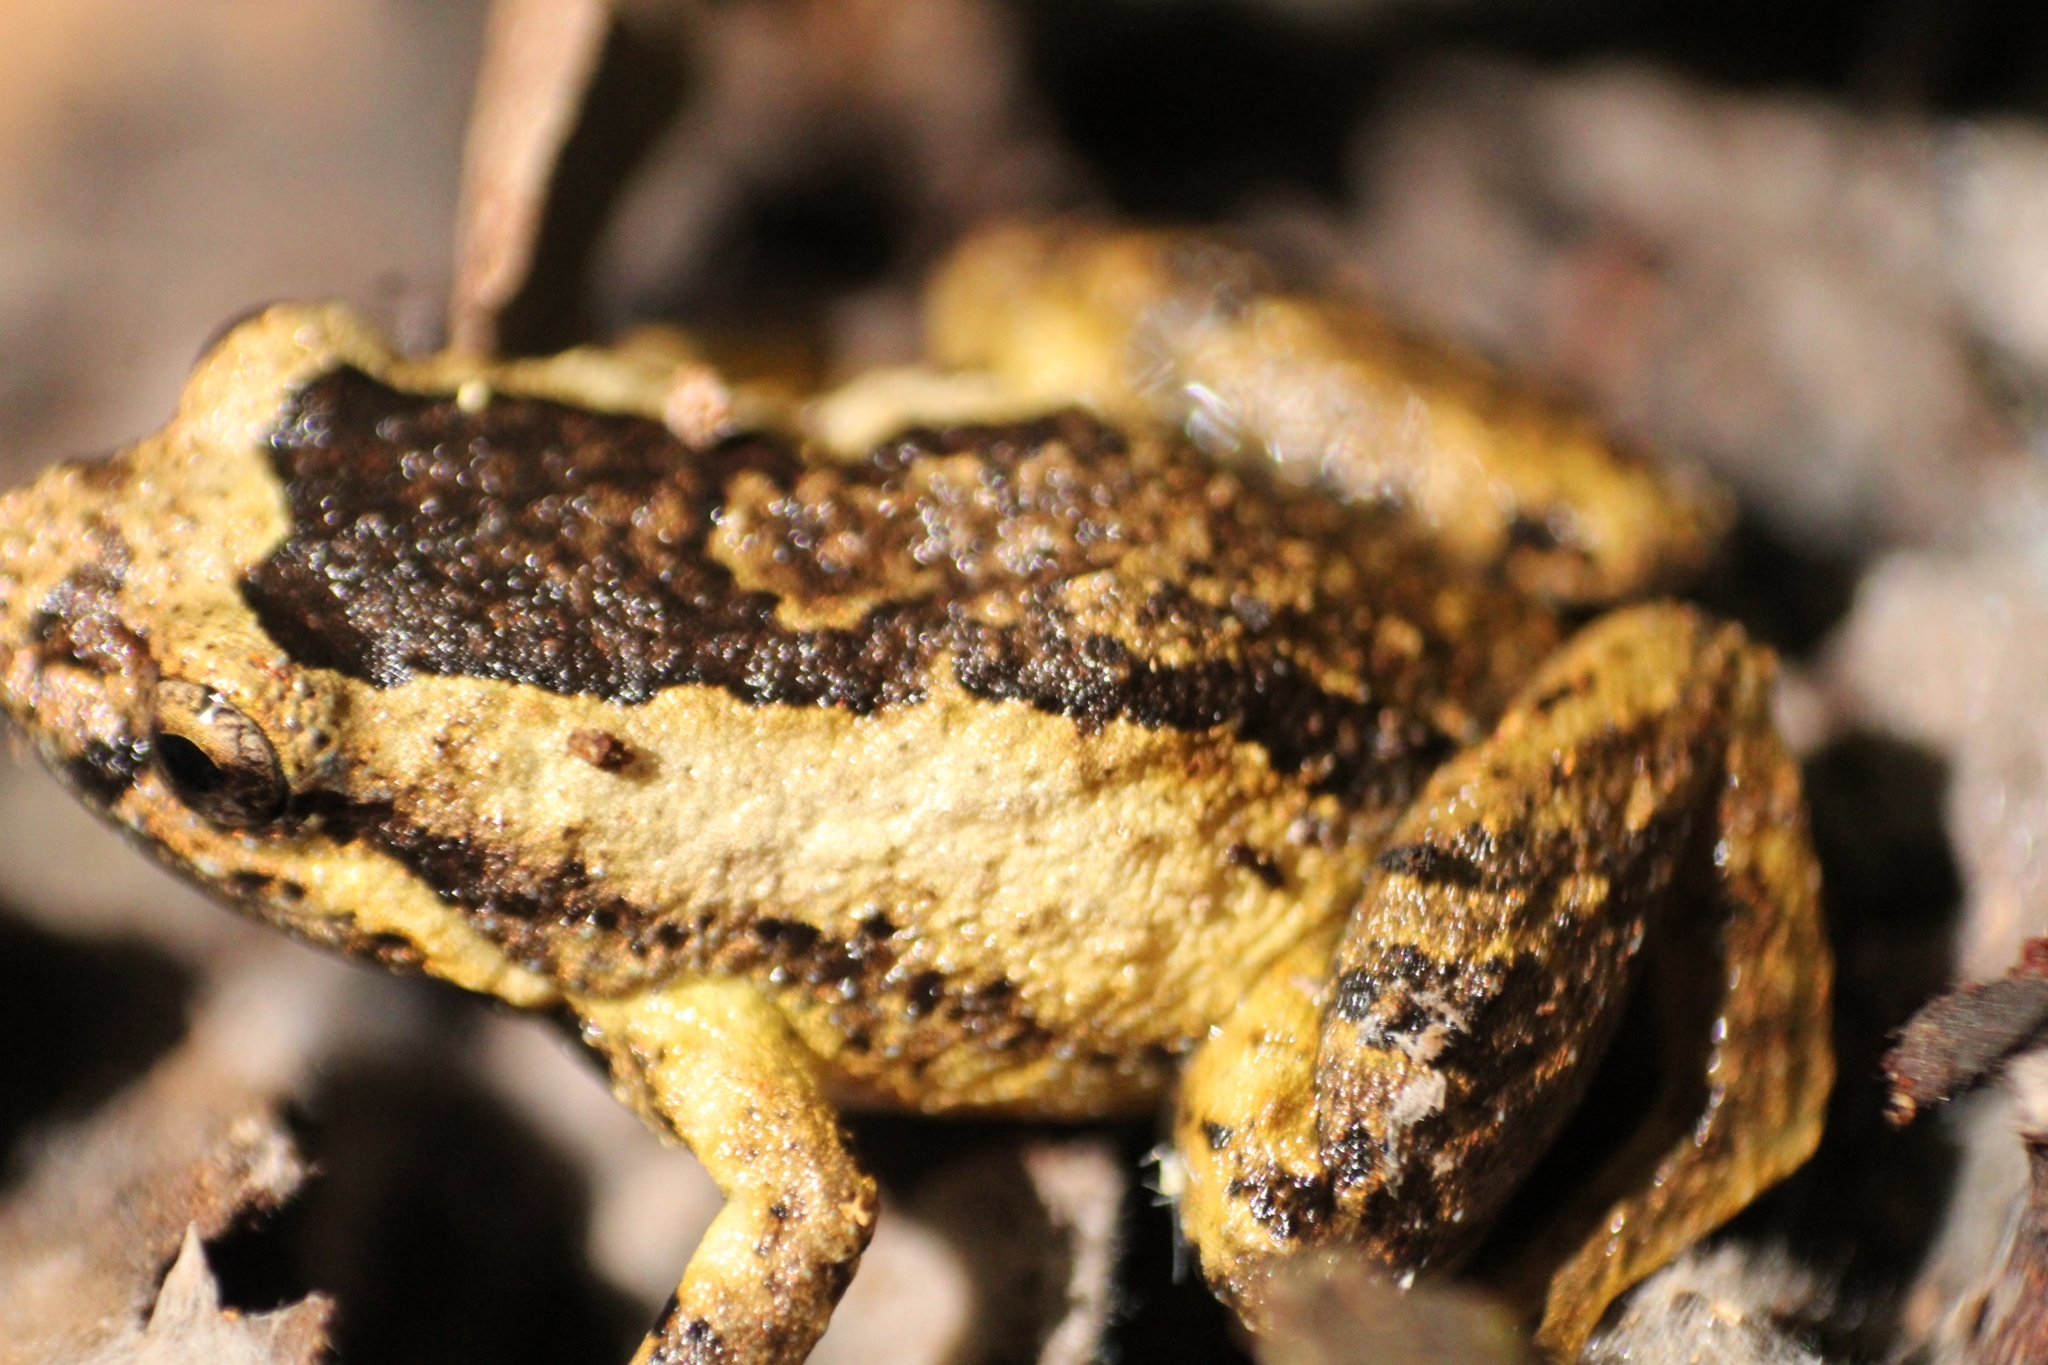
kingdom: Animalia
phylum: Chordata
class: Amphibia
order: Anura
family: Myobatrachidae
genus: Geocrinia
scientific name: Geocrinia leai
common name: Lea’s frog
